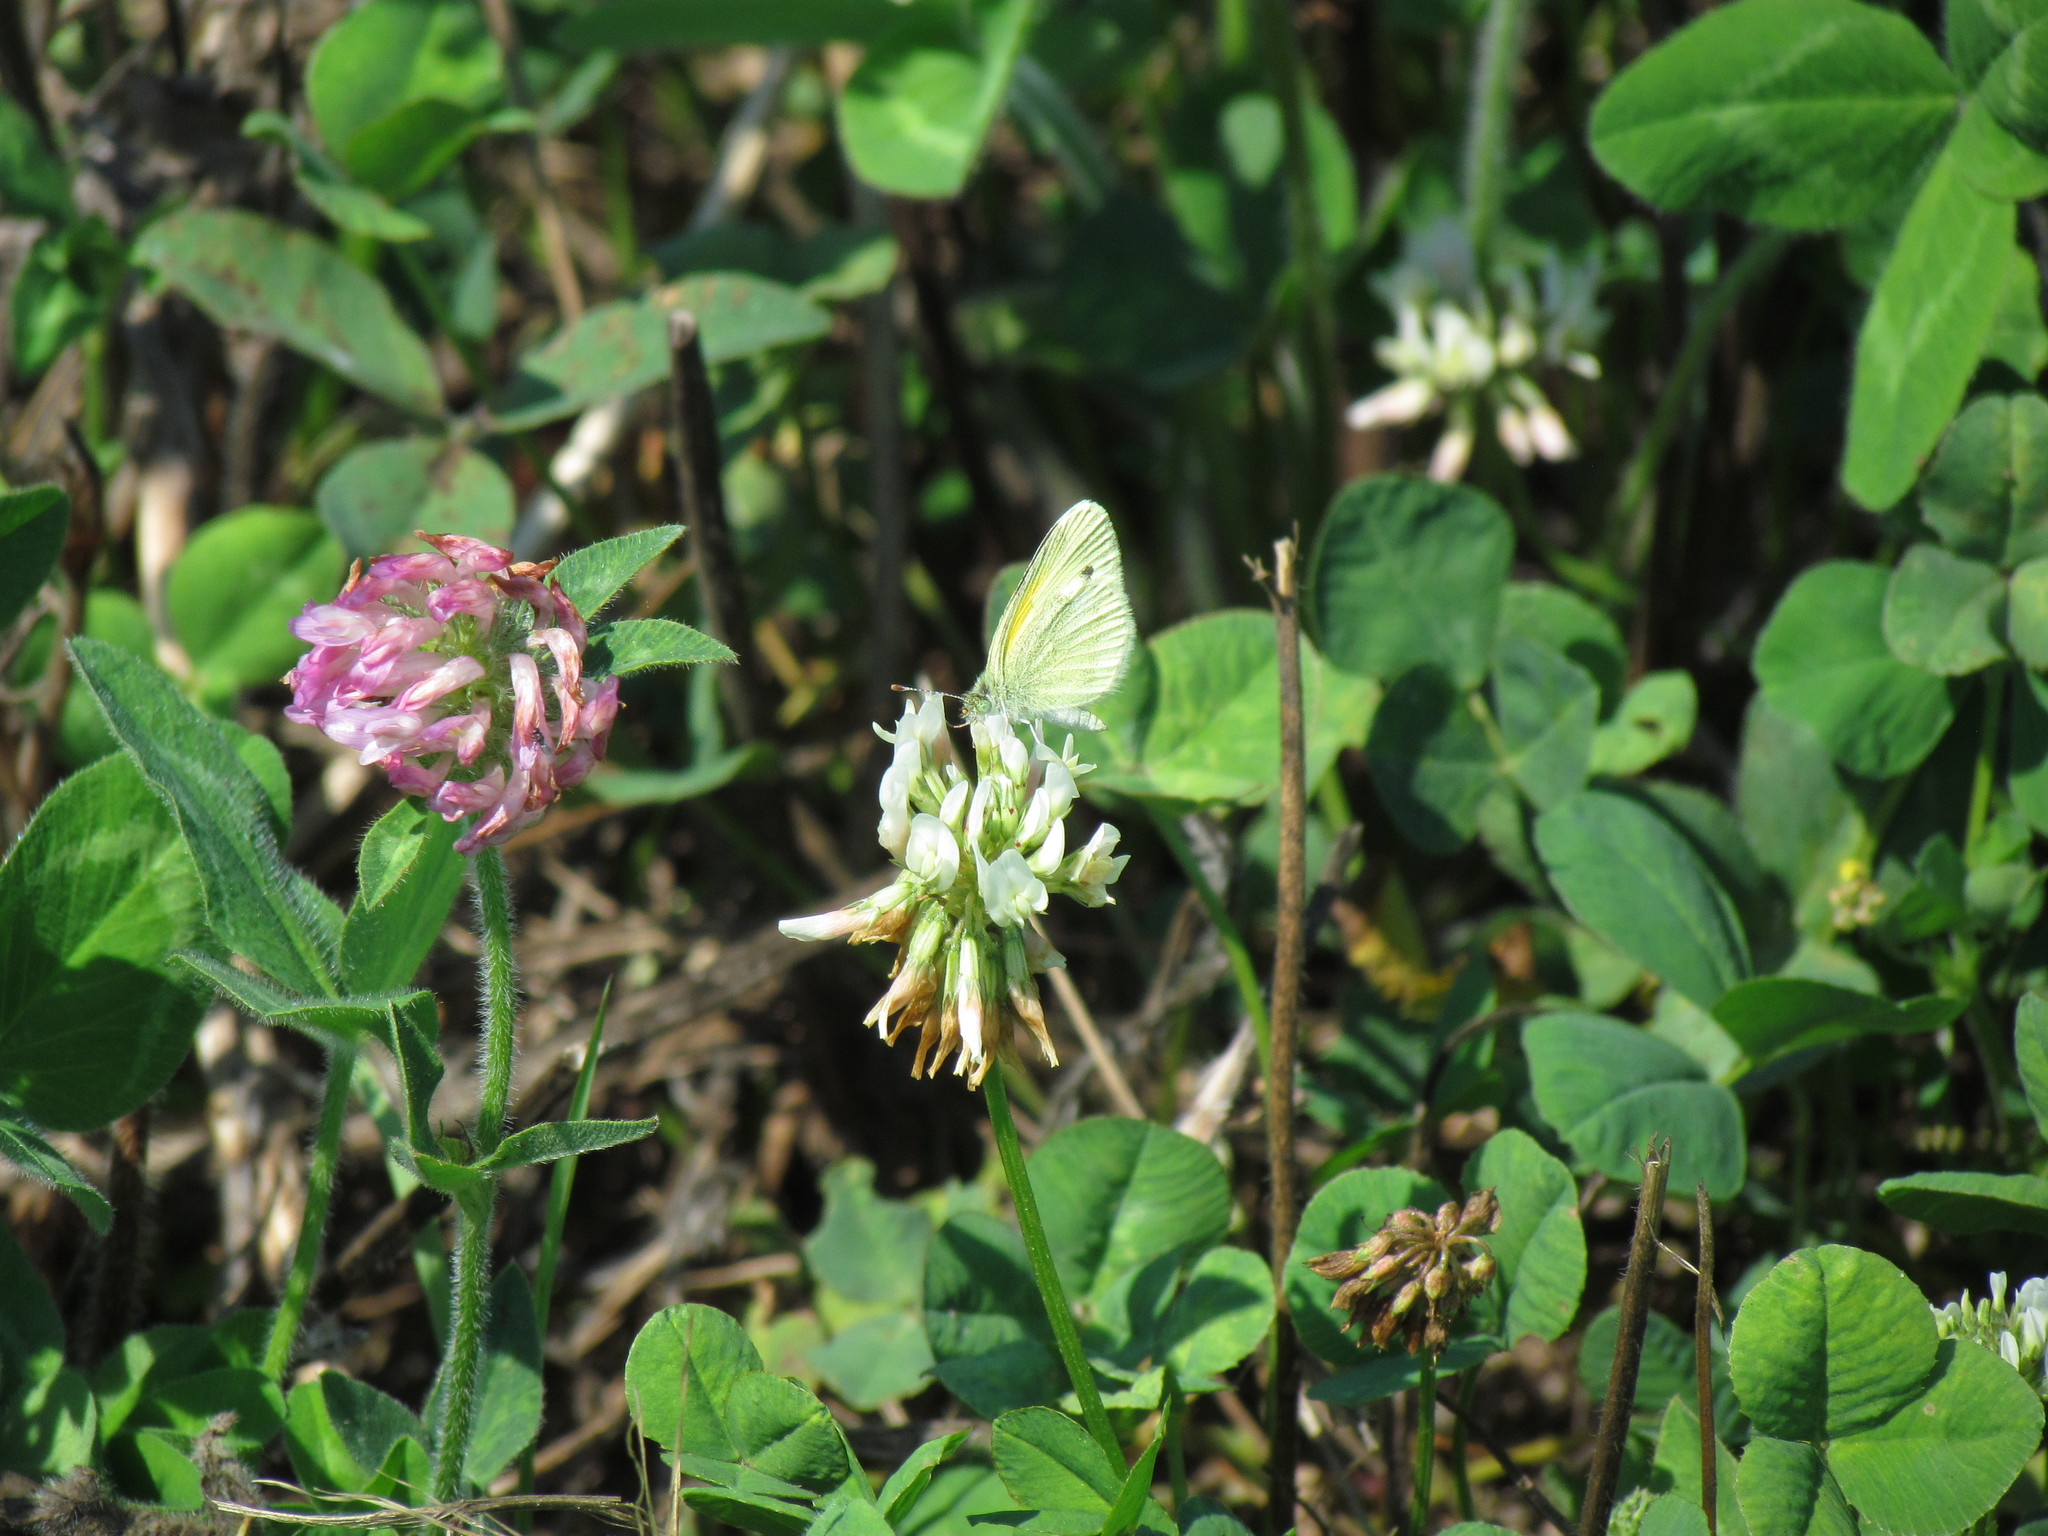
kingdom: Animalia
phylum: Arthropoda
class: Insecta
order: Lepidoptera
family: Pieridae
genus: Nathalis
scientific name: Nathalis iole
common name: Dainty sulphur
